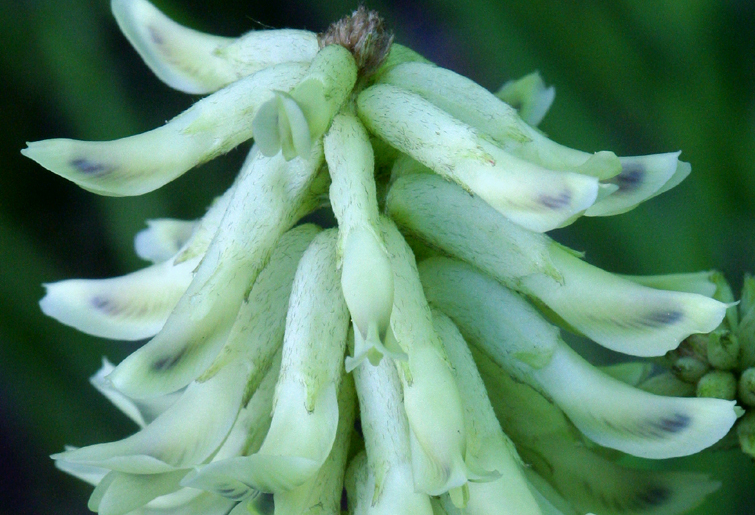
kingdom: Plantae
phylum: Tracheophyta
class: Magnoliopsida
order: Fabales
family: Fabaceae
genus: Astragalus
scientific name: Astragalus canadensis
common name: Canada milk-vetch
